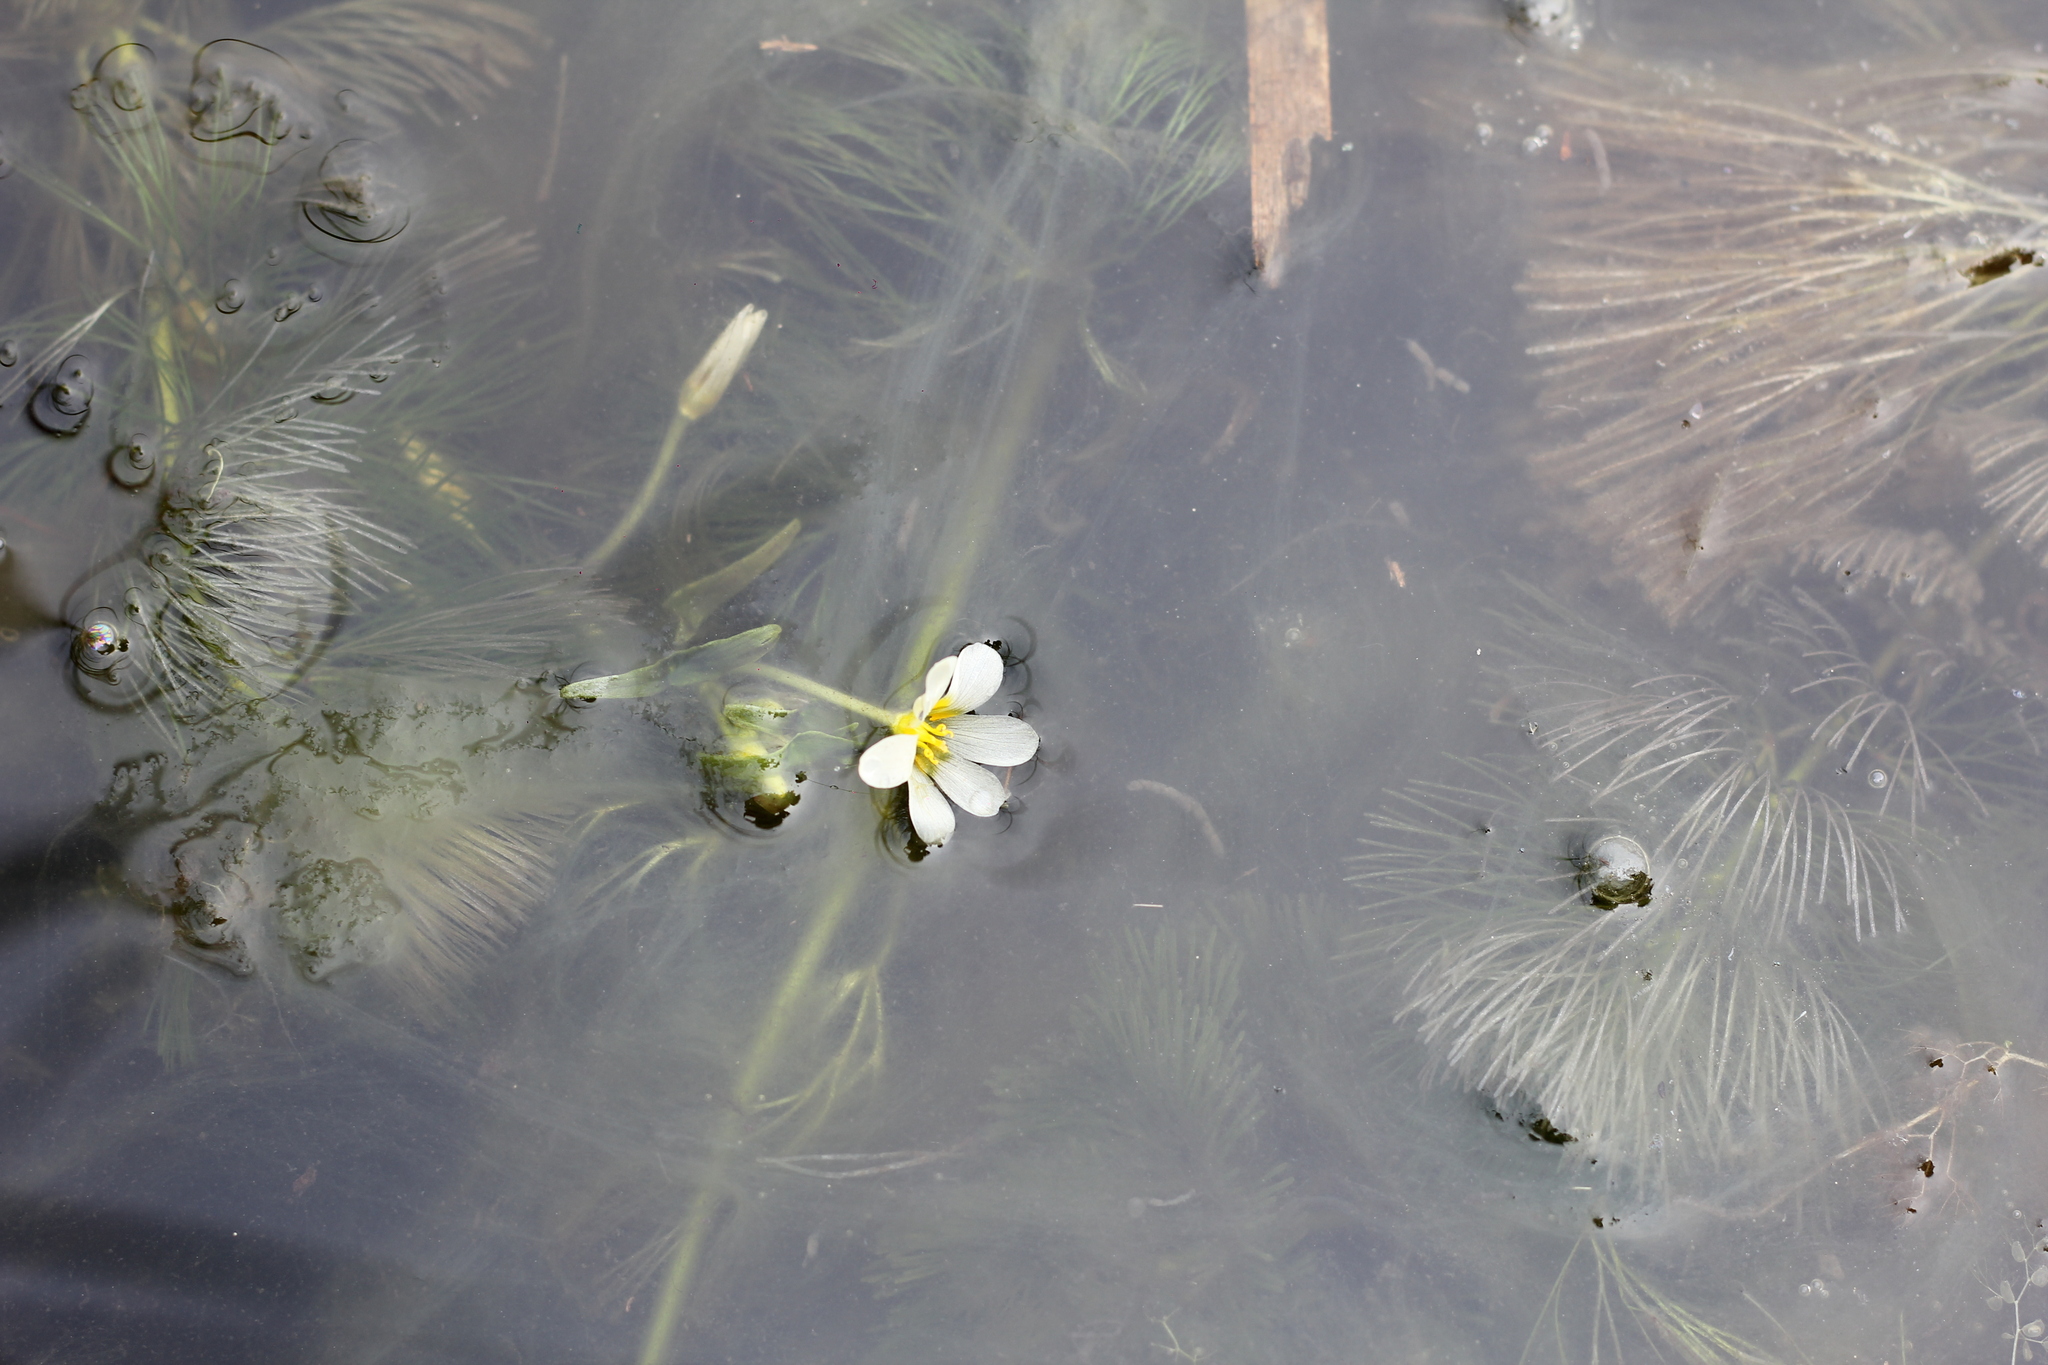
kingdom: Plantae
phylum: Tracheophyta
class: Magnoliopsida
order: Nymphaeales
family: Cabombaceae
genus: Cabomba
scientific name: Cabomba caroliniana
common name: Fanwort
